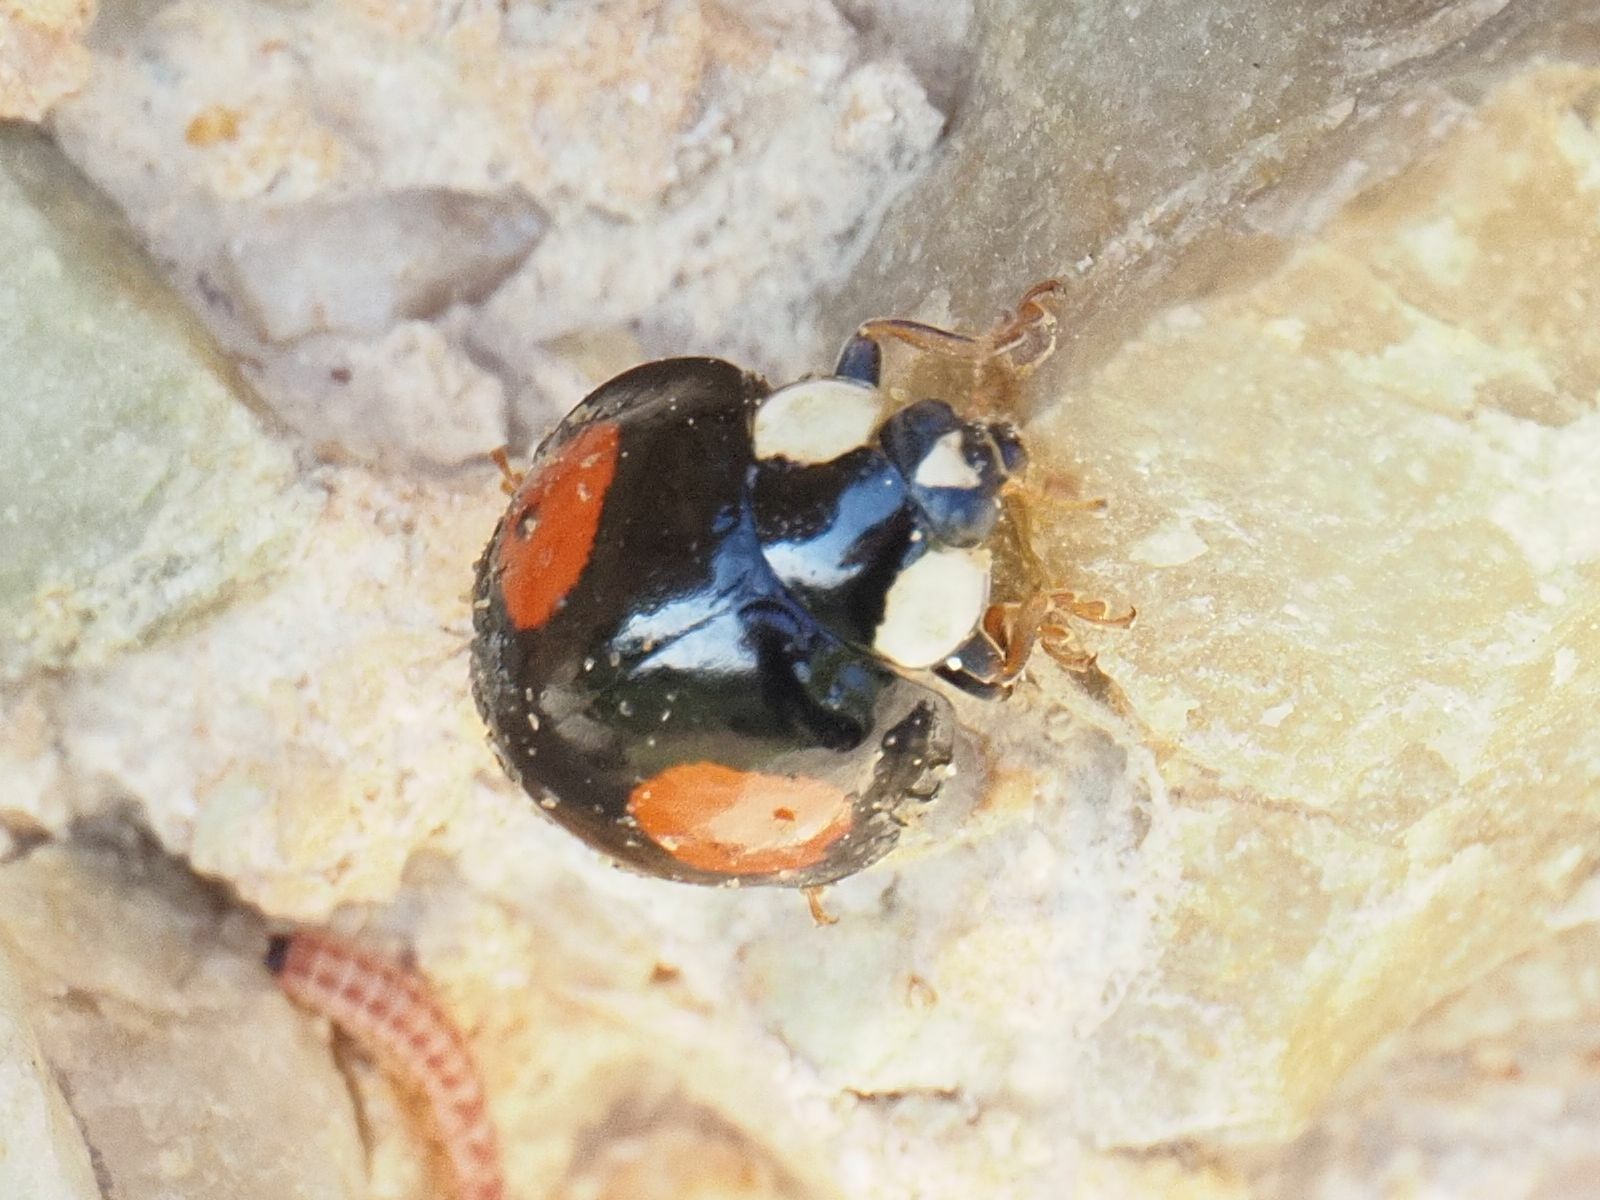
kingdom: Animalia
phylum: Arthropoda
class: Insecta
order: Coleoptera
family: Coccinellidae
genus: Harmonia
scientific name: Harmonia axyridis
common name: Harlequin ladybird
